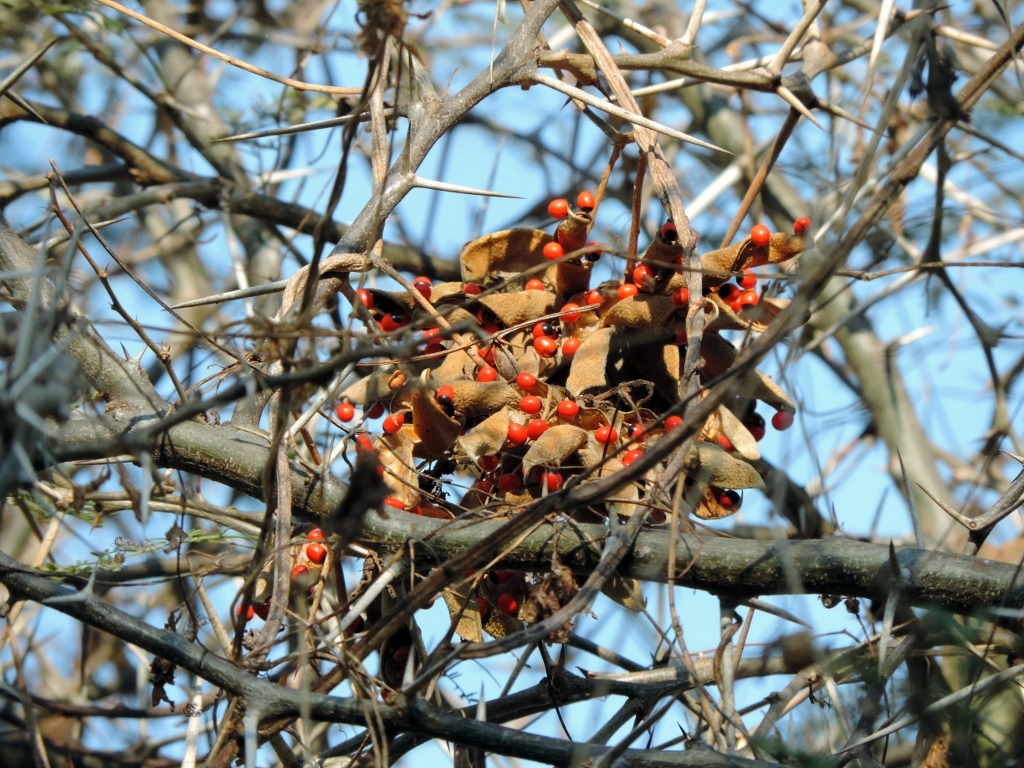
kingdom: Plantae
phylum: Tracheophyta
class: Magnoliopsida
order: Fabales
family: Fabaceae
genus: Abrus
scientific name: Abrus precatorius
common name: Rosarypea
